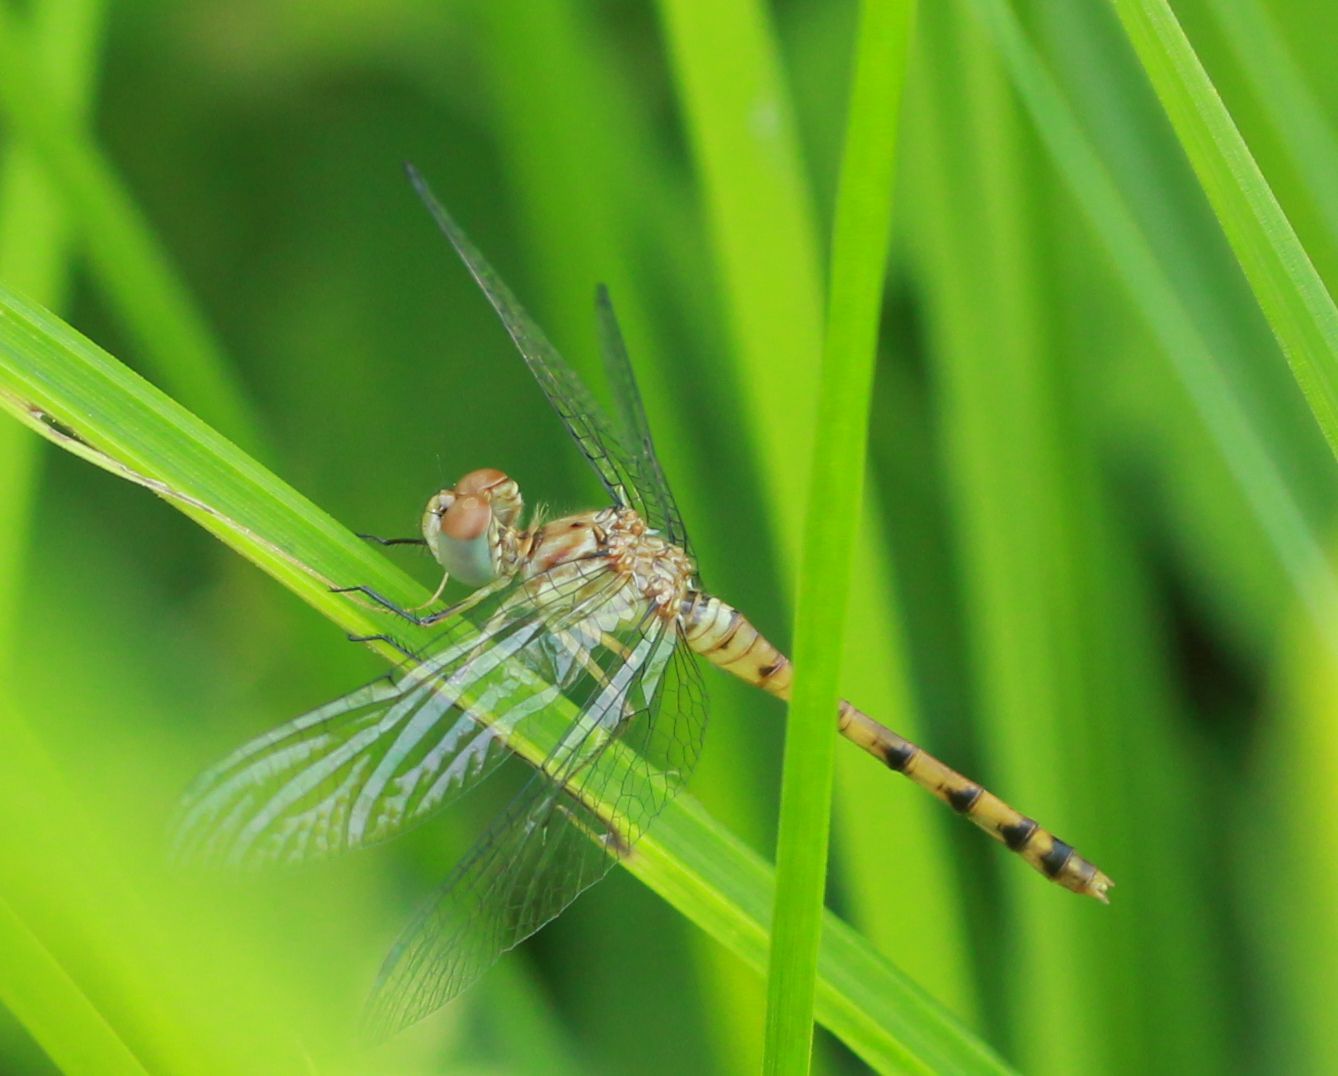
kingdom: Animalia
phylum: Arthropoda
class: Insecta
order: Odonata
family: Libellulidae
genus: Sympetrum
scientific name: Sympetrum ambiguum
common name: Blue-faced meadowhawk
